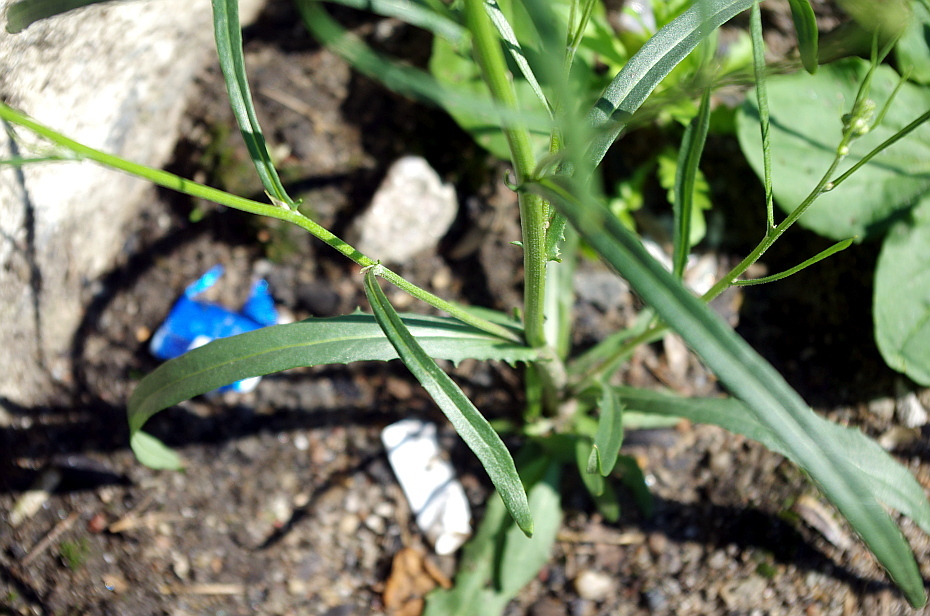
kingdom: Plantae
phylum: Tracheophyta
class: Magnoliopsida
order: Asterales
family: Asteraceae
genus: Crepis
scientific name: Crepis tectorum
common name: Narrow-leaved hawk's-beard
